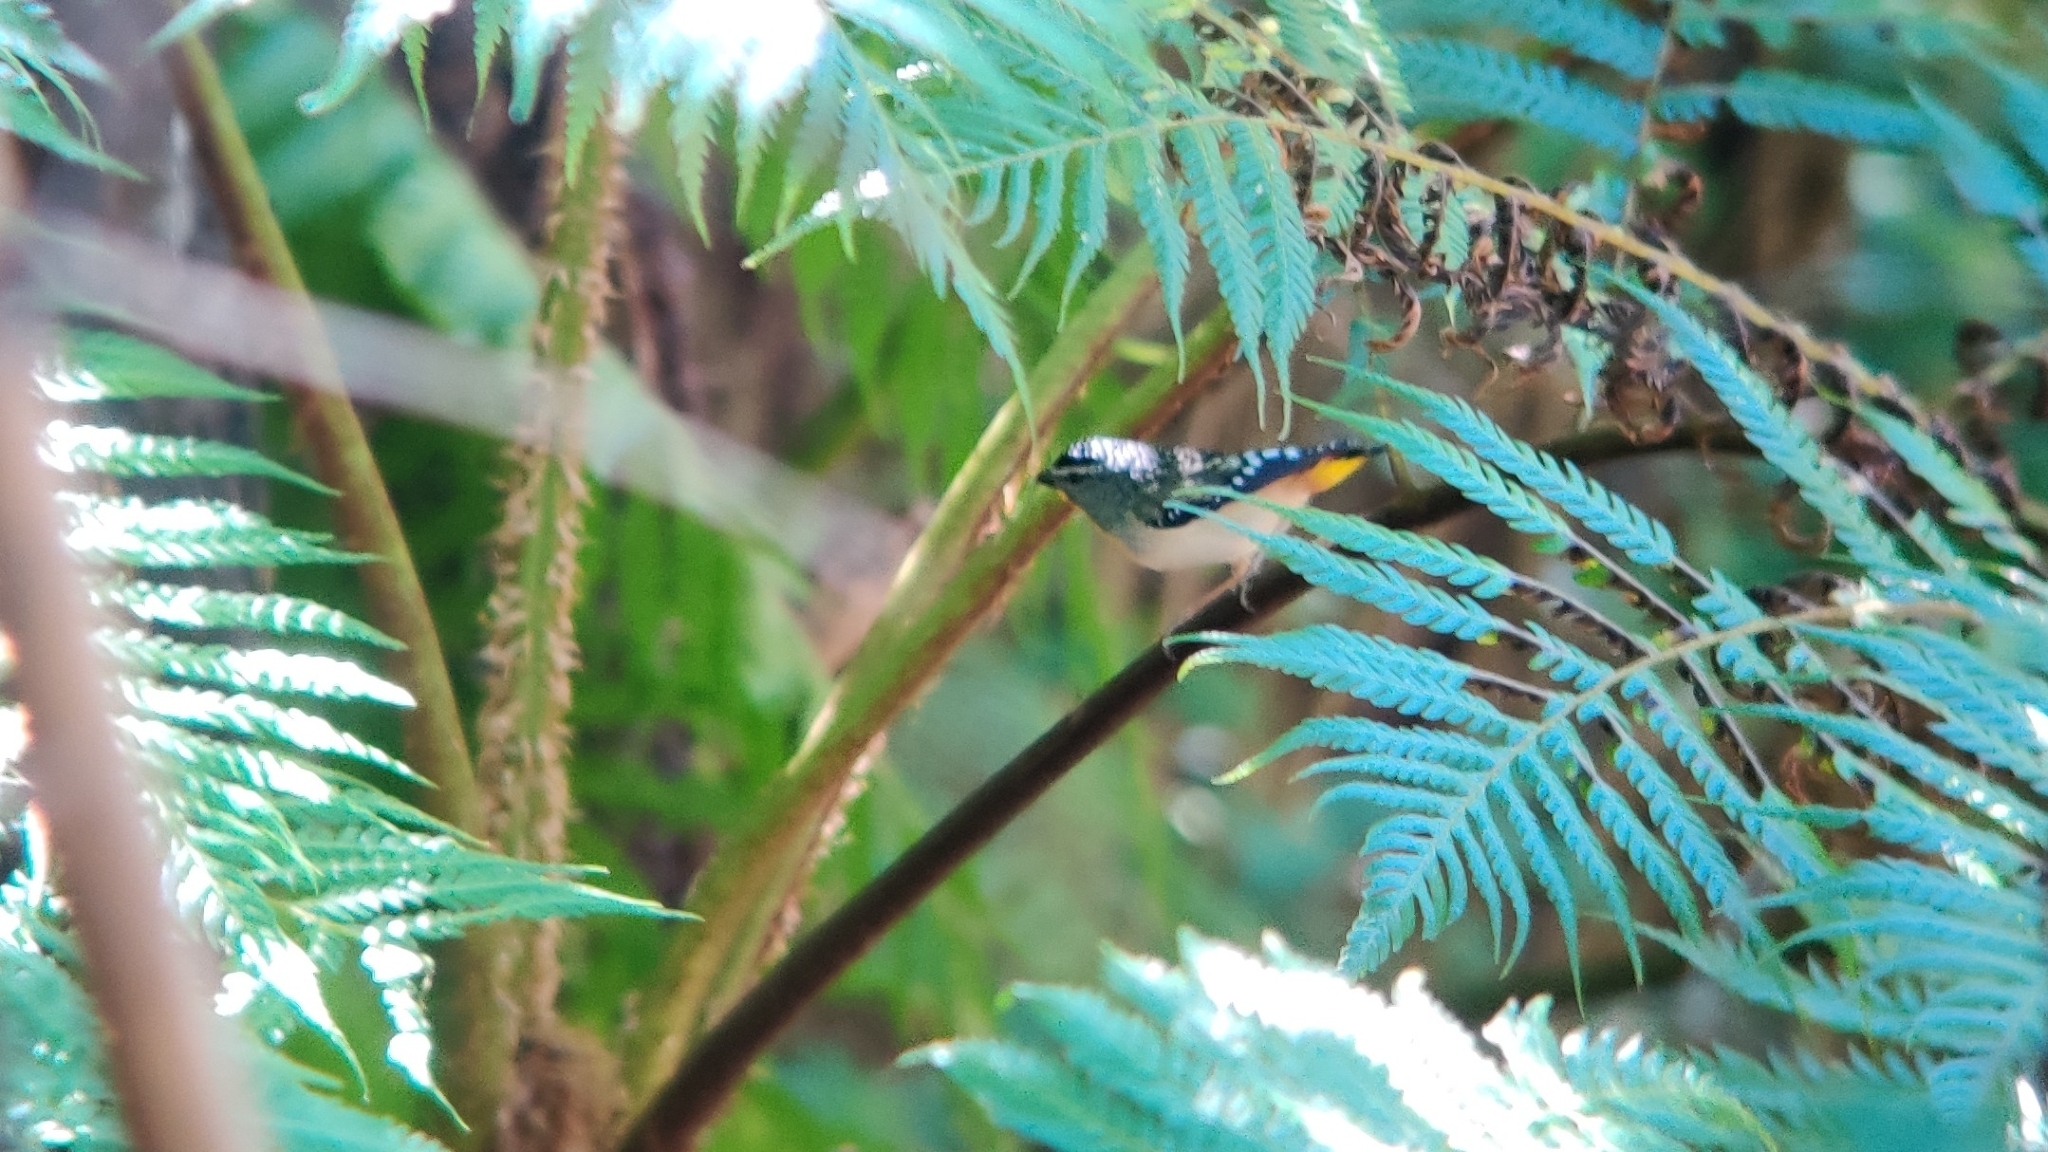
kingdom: Animalia
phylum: Chordata
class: Aves
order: Passeriformes
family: Pardalotidae
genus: Pardalotus
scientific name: Pardalotus punctatus
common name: Spotted pardalote
